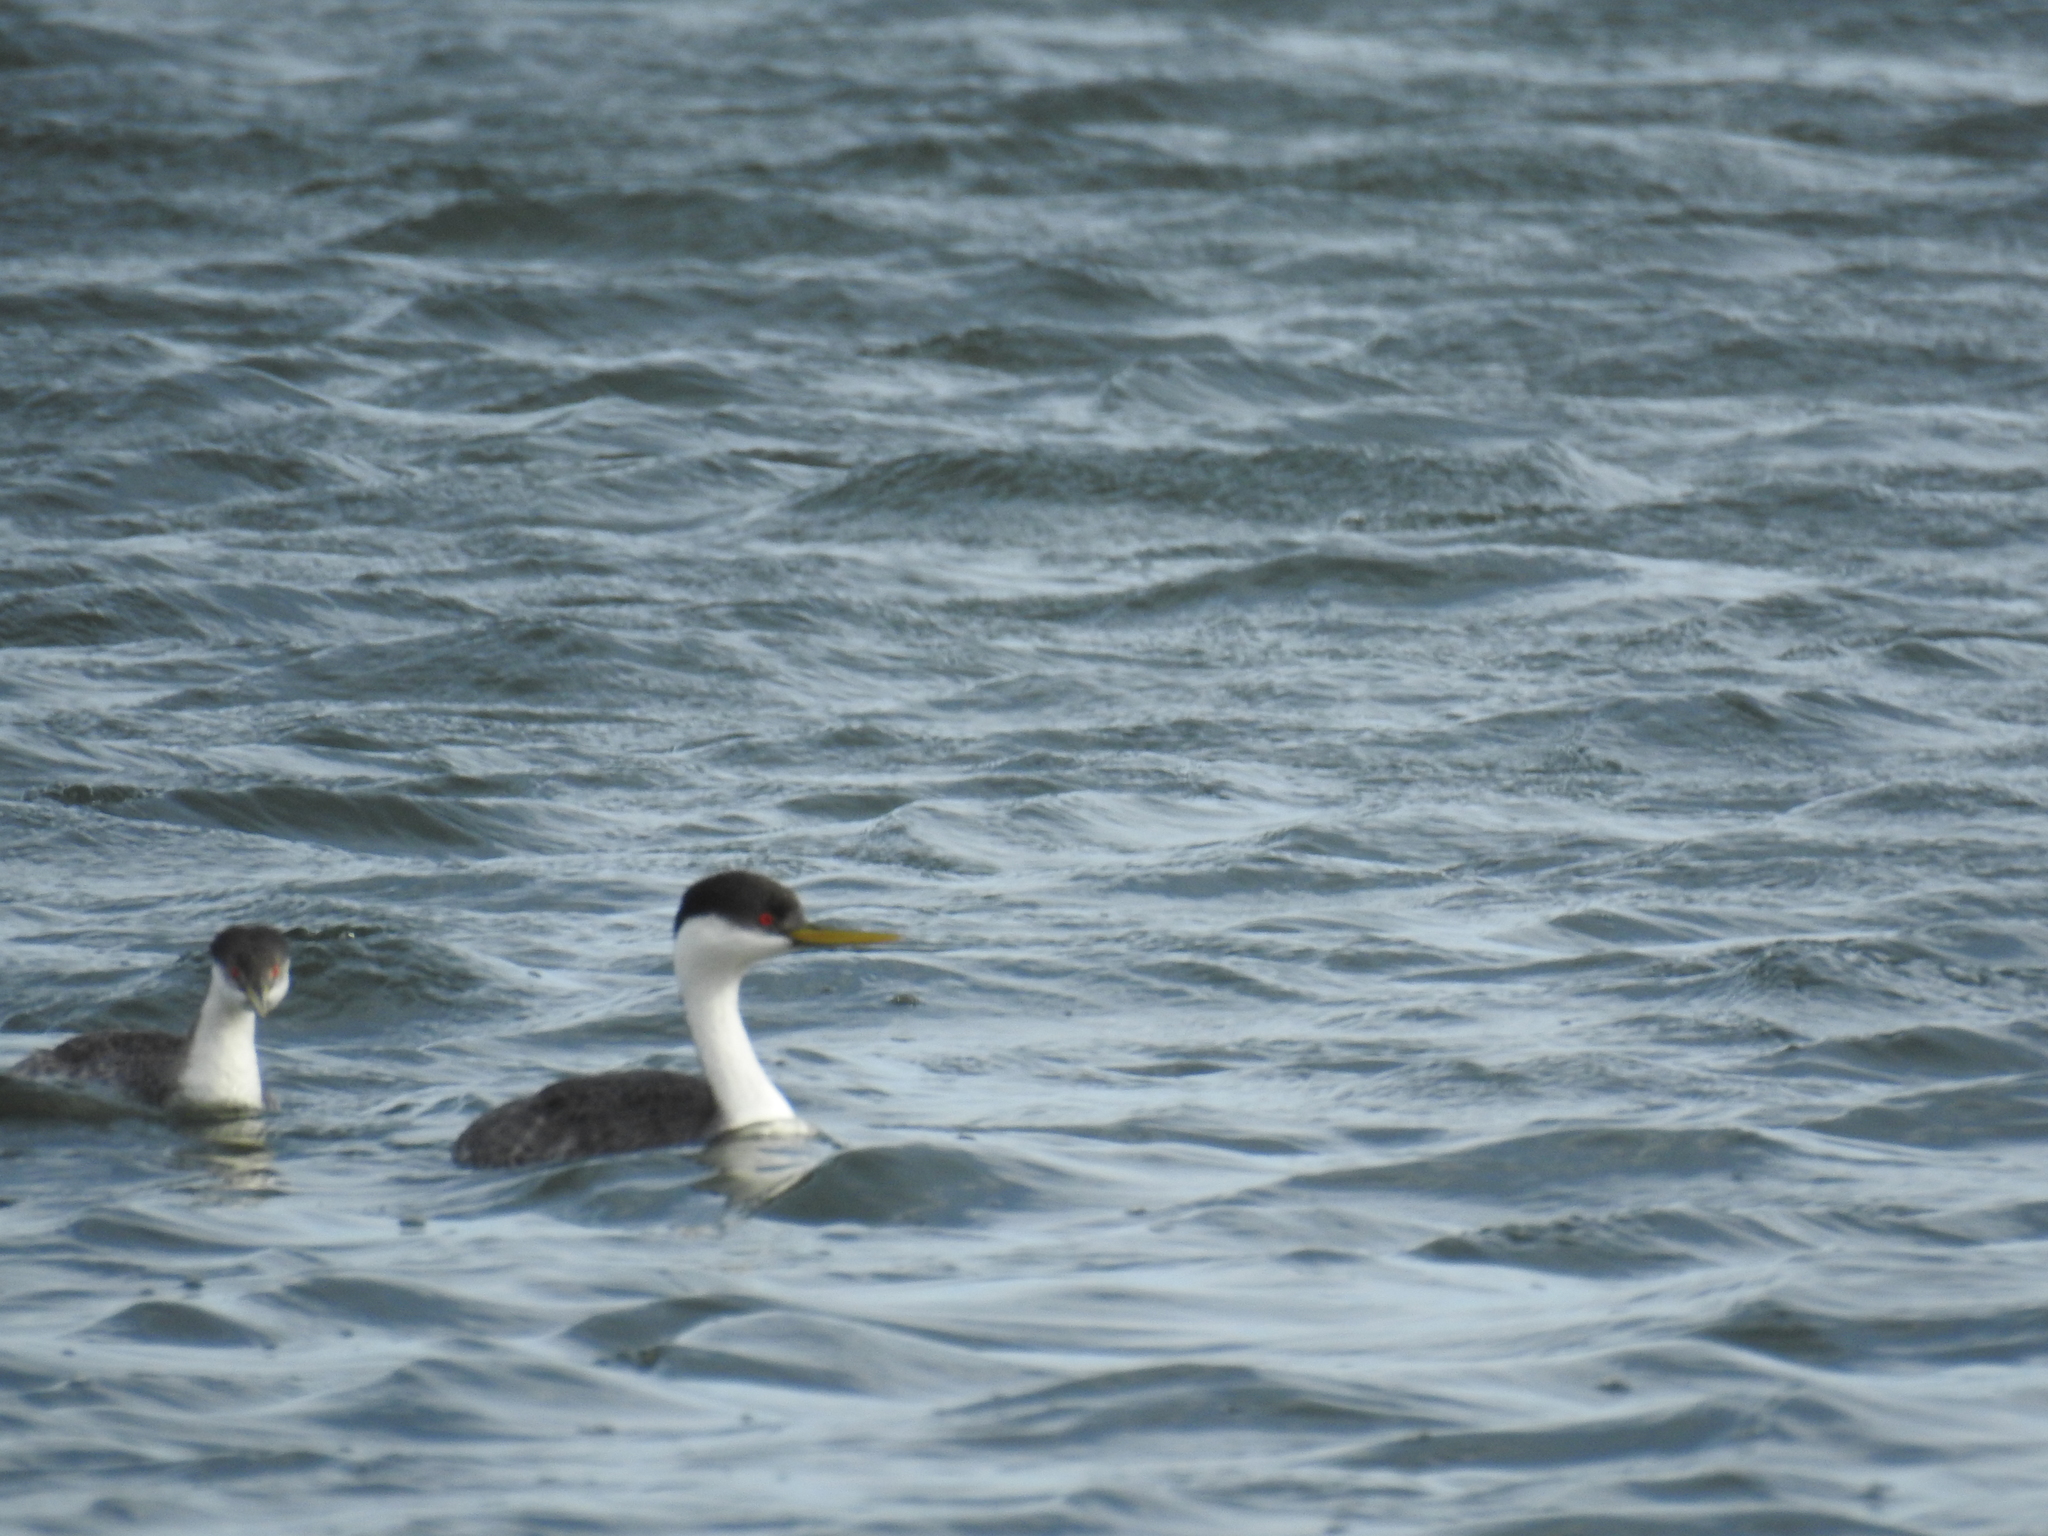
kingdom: Animalia
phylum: Chordata
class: Aves
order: Podicipediformes
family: Podicipedidae
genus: Aechmophorus
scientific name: Aechmophorus occidentalis
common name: Western grebe
